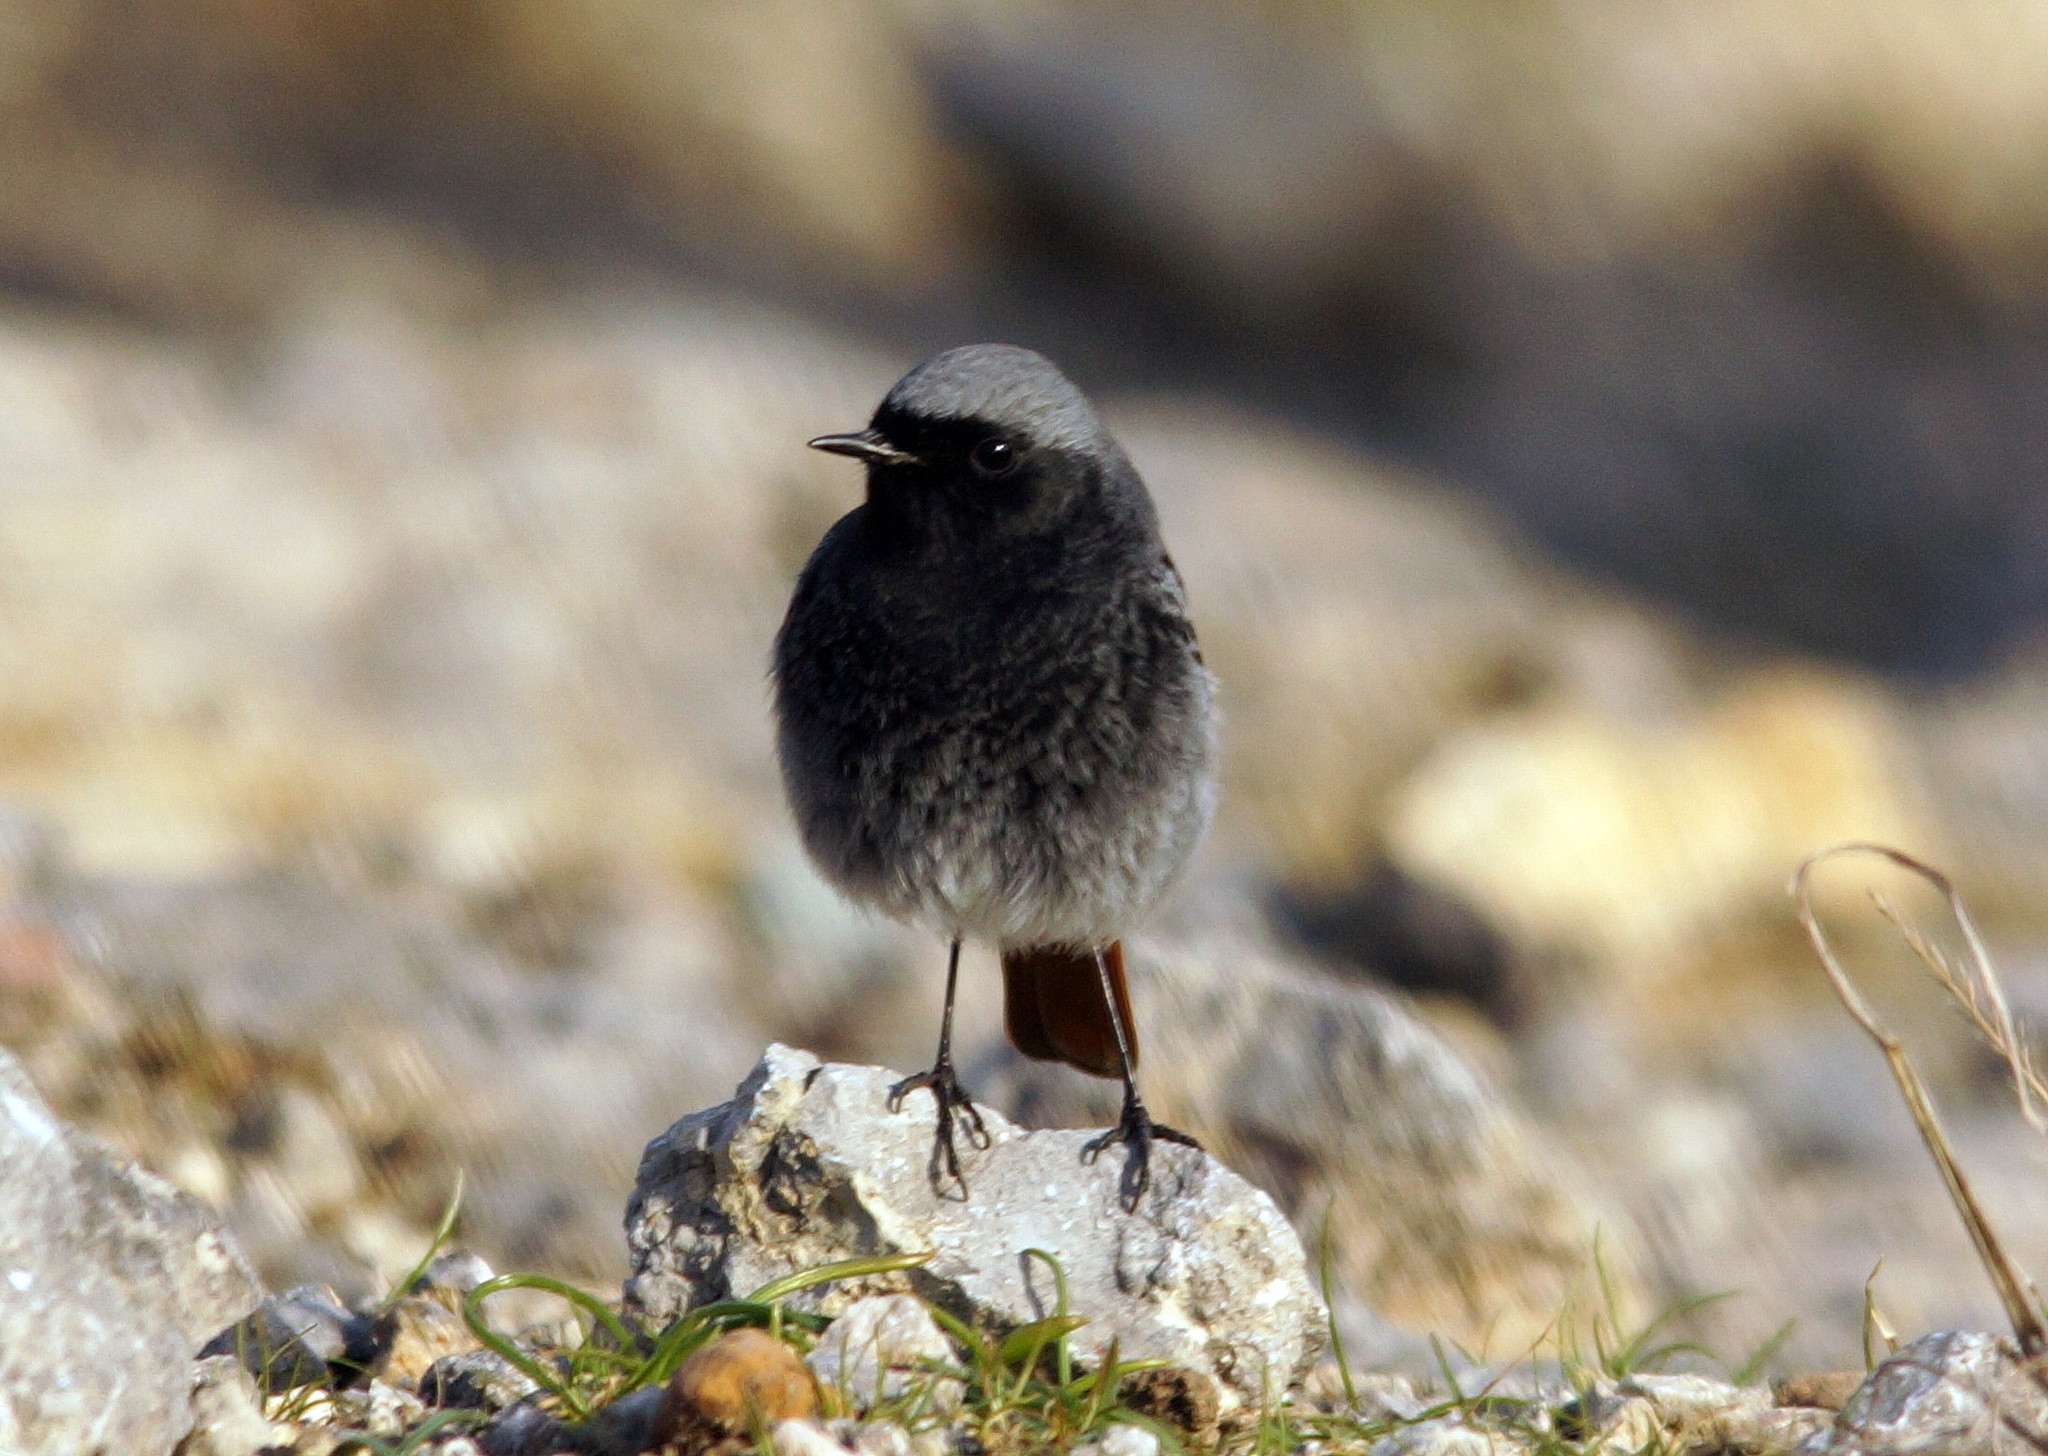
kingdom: Animalia
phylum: Chordata
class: Aves
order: Passeriformes
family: Muscicapidae
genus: Phoenicurus
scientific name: Phoenicurus ochruros
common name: Black redstart
